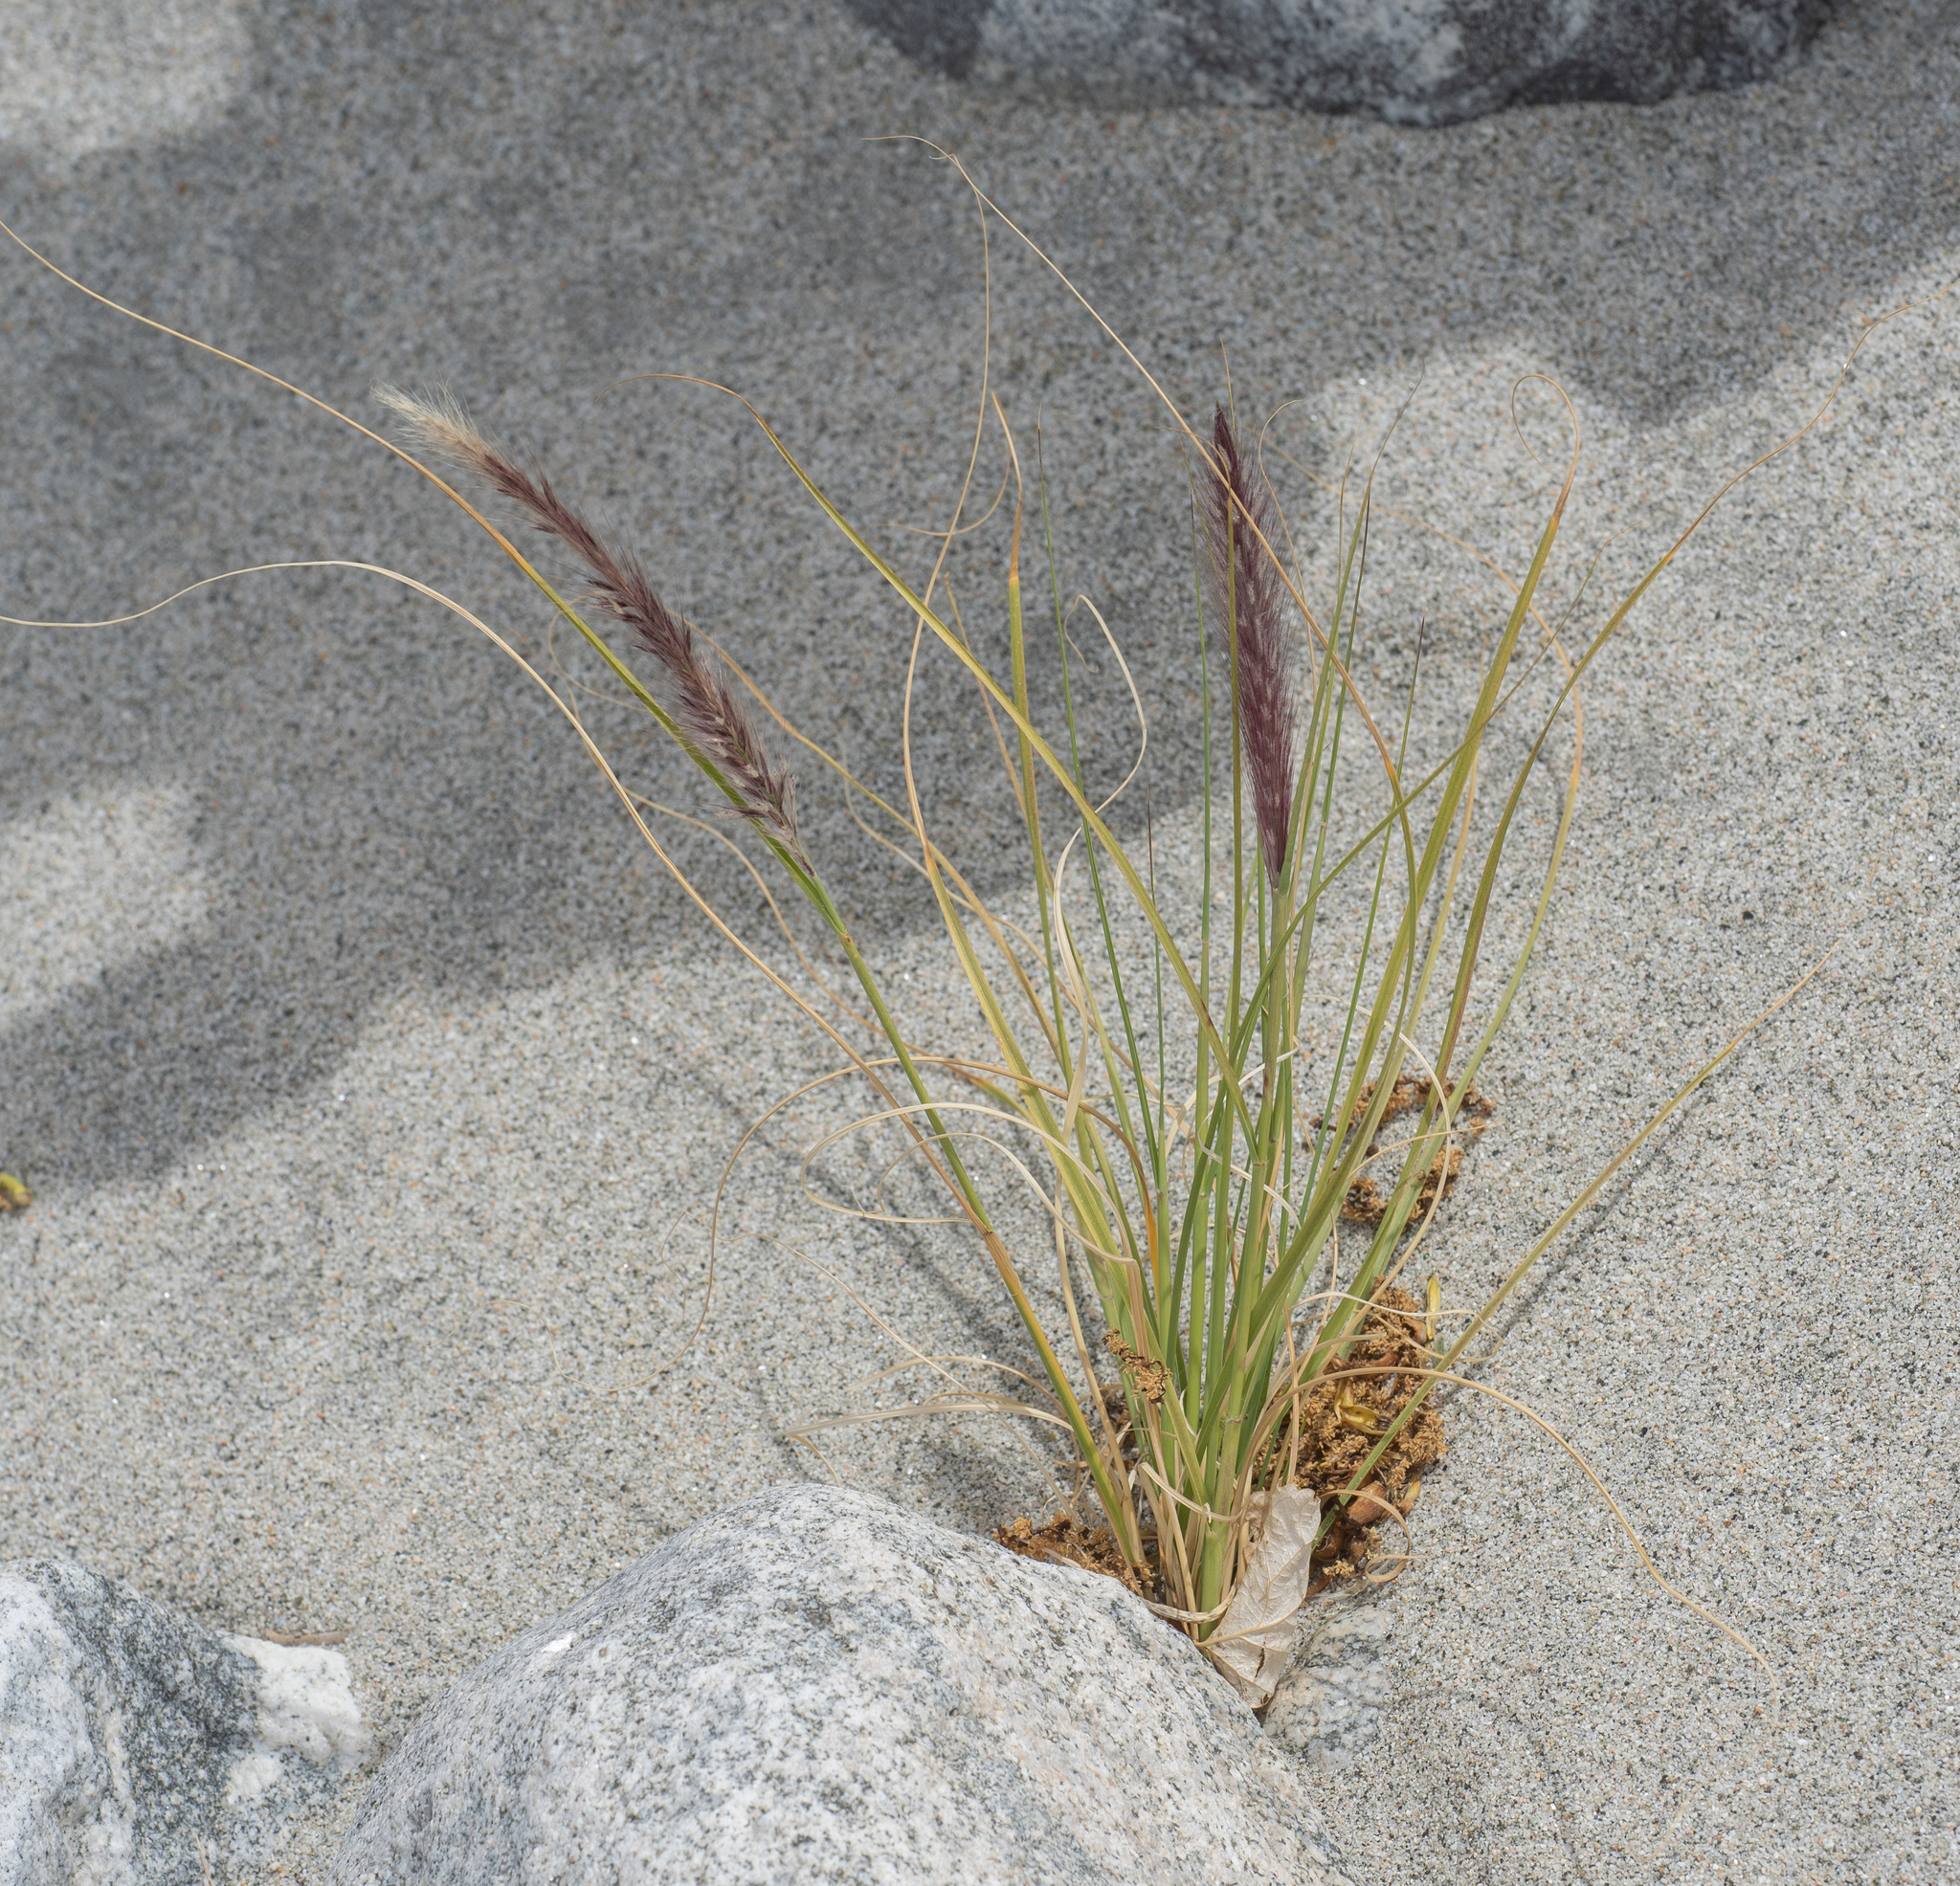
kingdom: Plantae
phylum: Tracheophyta
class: Liliopsida
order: Poales
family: Poaceae
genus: Cenchrus
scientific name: Cenchrus setaceus
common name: Crimson fountaingrass
